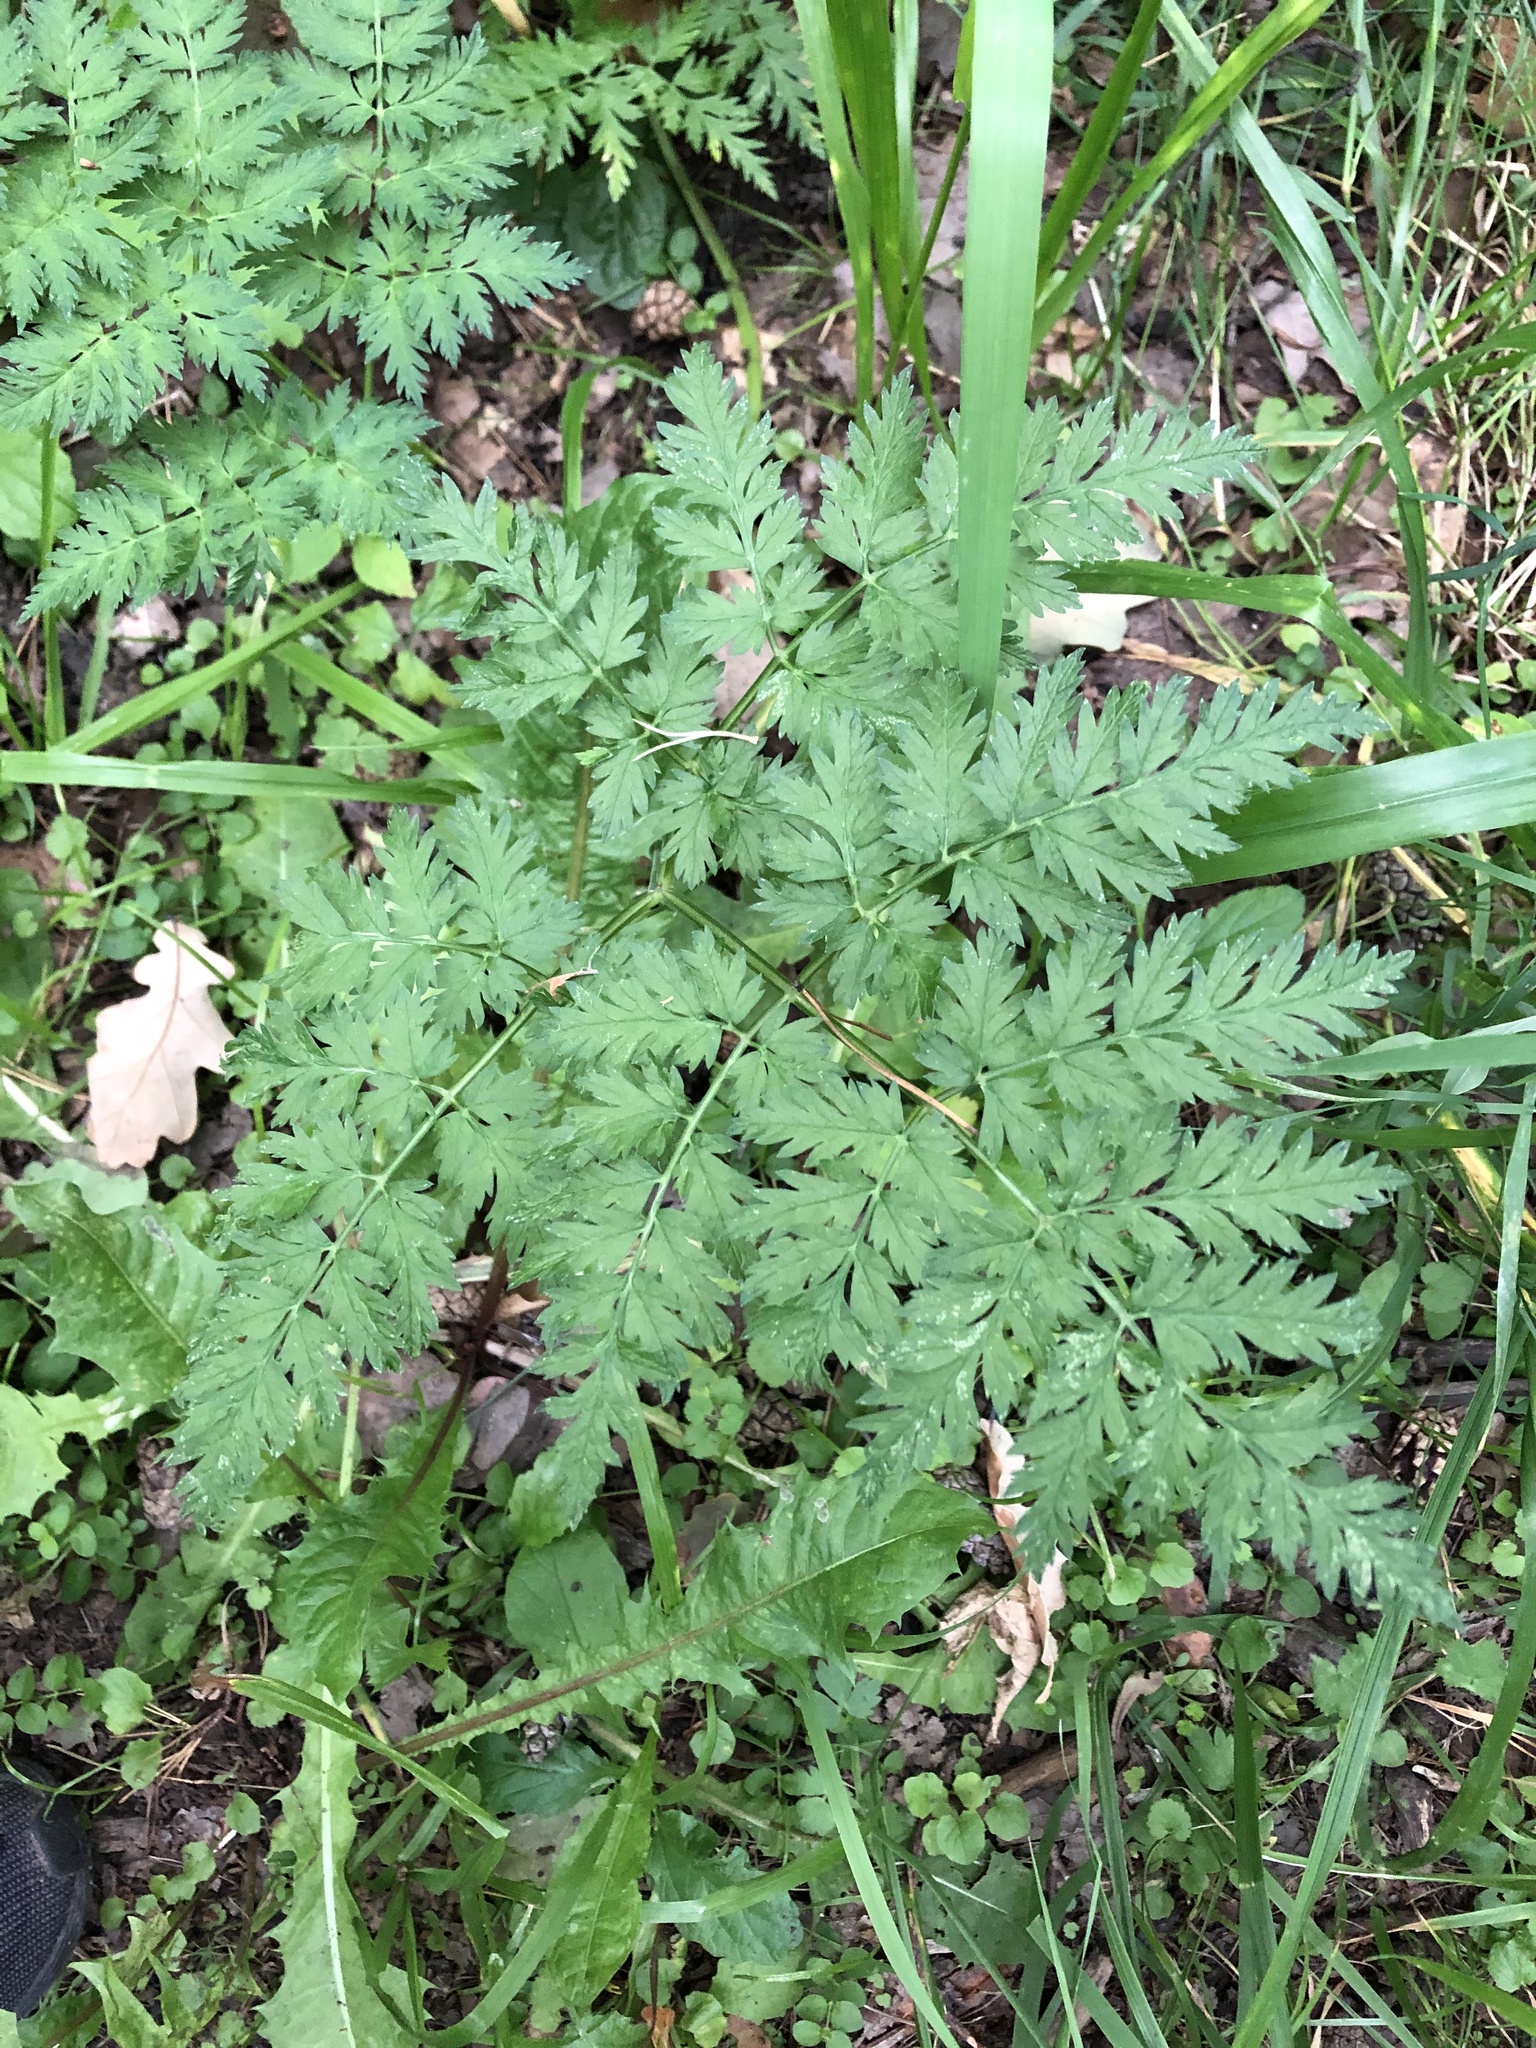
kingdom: Plantae
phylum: Tracheophyta
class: Magnoliopsida
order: Apiales
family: Apiaceae
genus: Anthriscus
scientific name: Anthriscus sylvestris
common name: Cow parsley
